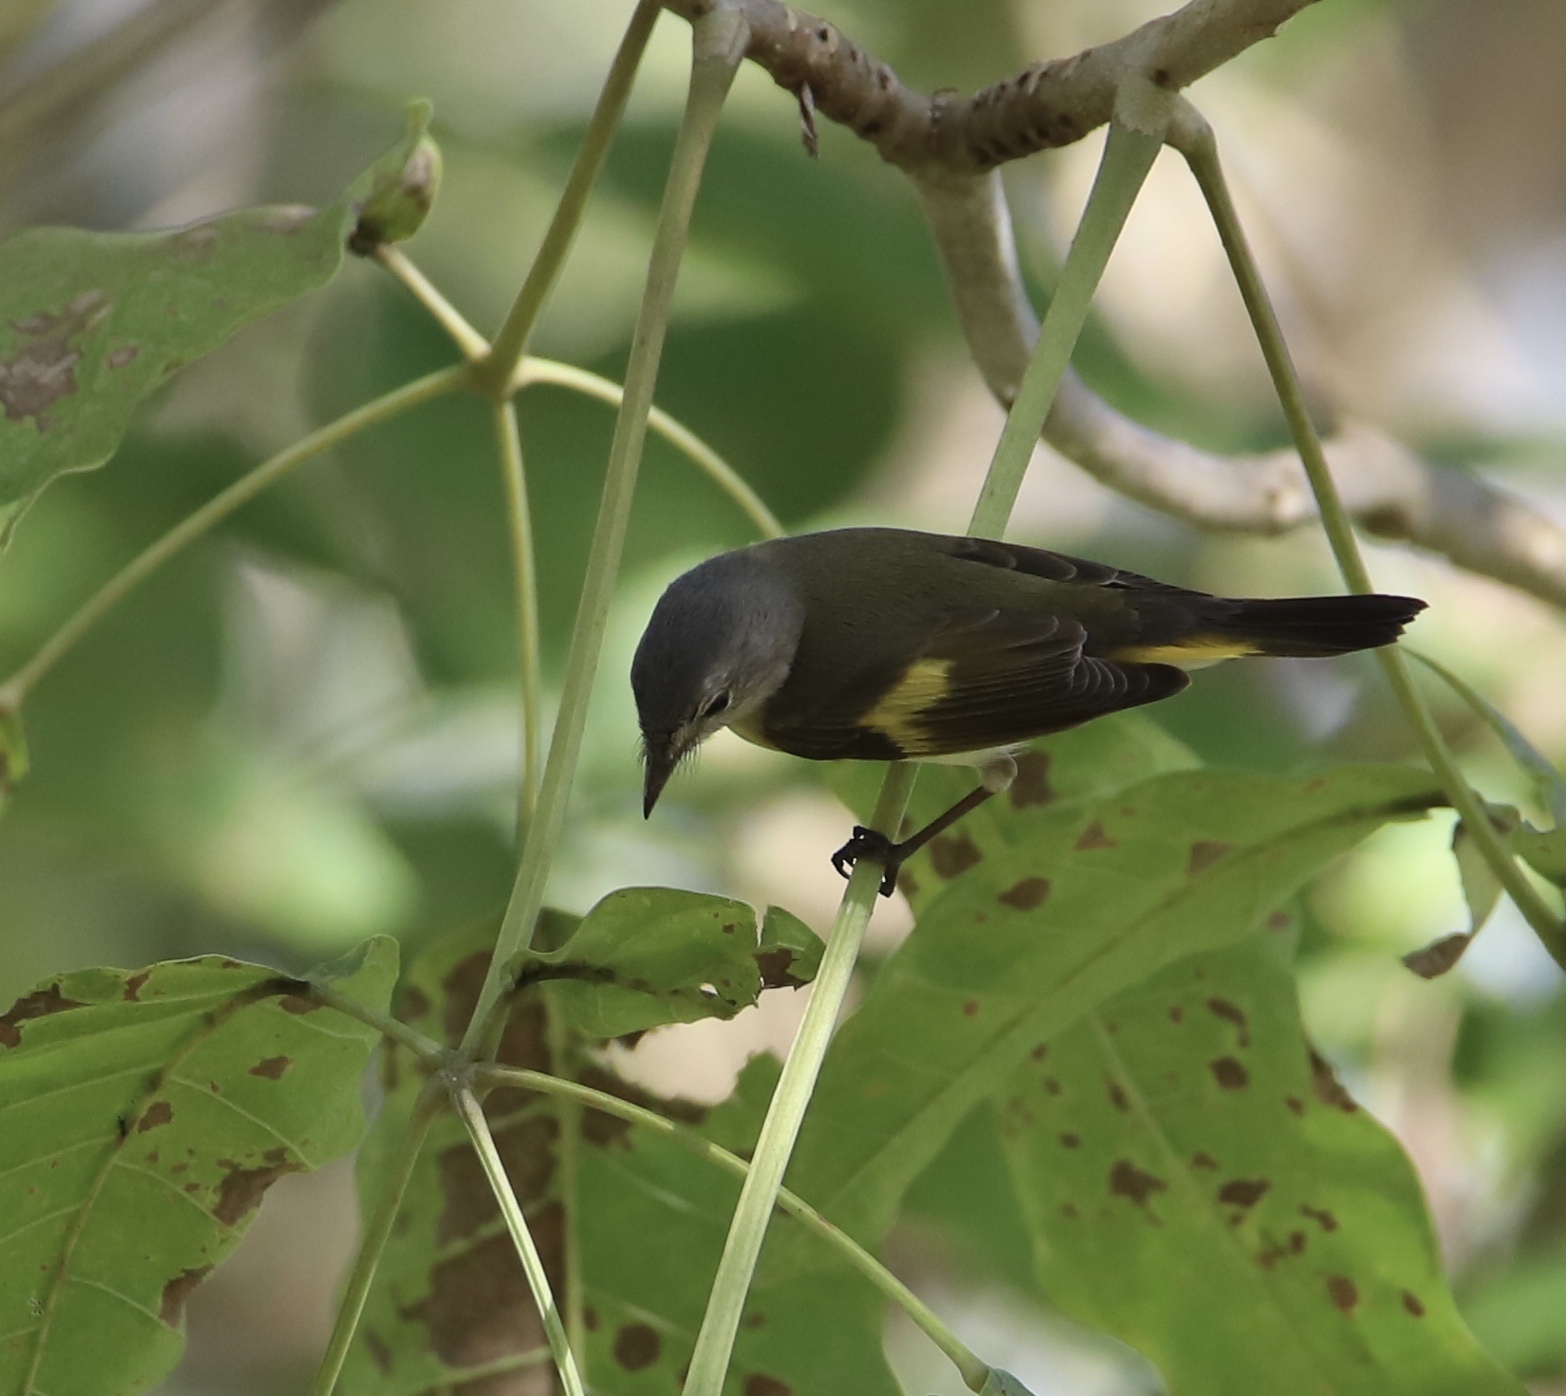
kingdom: Animalia
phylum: Chordata
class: Aves
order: Passeriformes
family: Parulidae
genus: Setophaga
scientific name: Setophaga ruticilla
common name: American redstart
